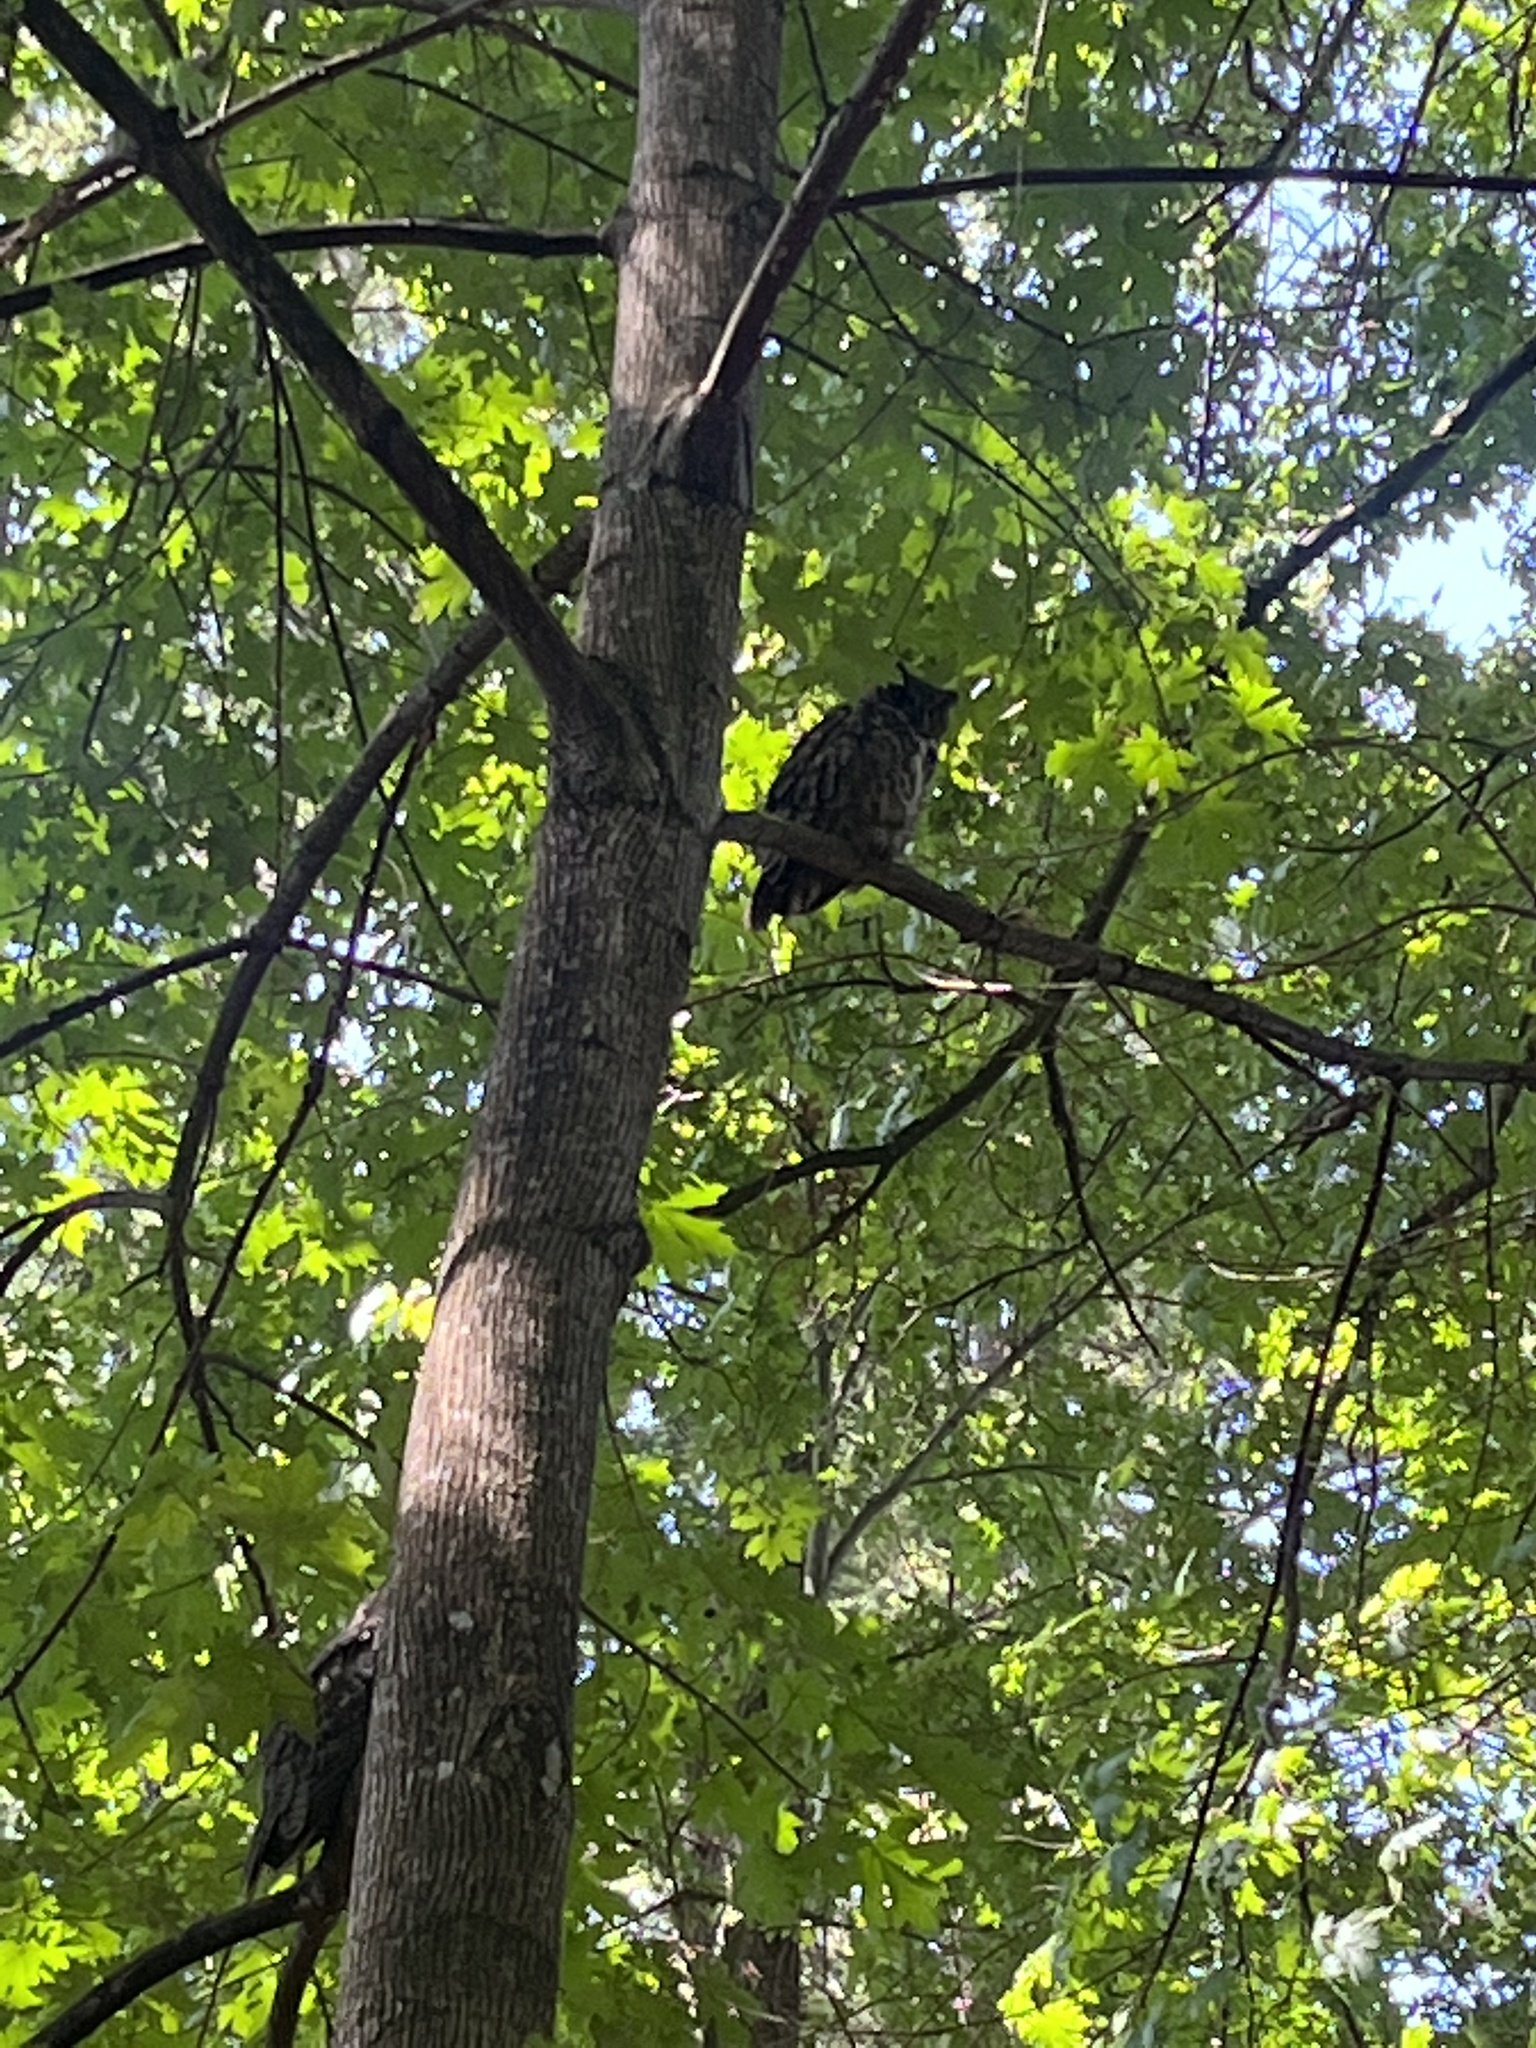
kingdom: Animalia
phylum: Chordata
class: Aves
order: Strigiformes
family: Strigidae
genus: Bubo
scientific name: Bubo virginianus
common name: Great horned owl
